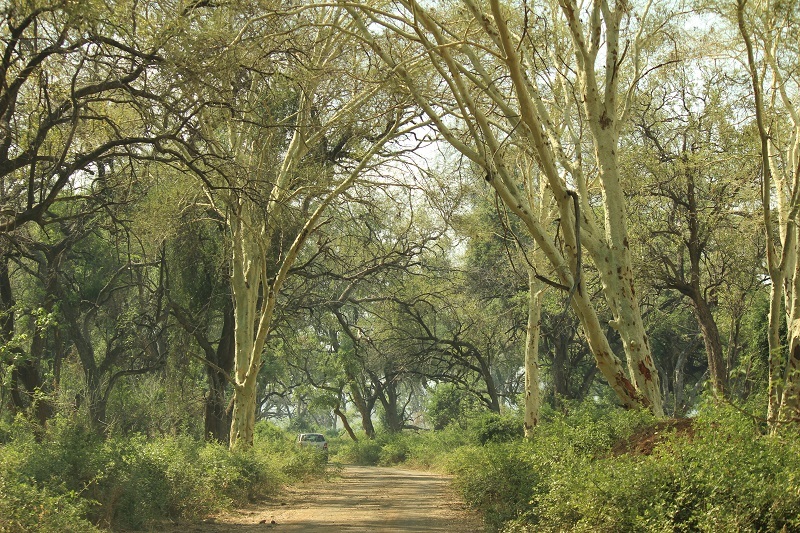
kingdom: Plantae
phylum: Tracheophyta
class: Magnoliopsida
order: Fabales
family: Fabaceae
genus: Vachellia
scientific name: Vachellia xanthophloea
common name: Fever tree
